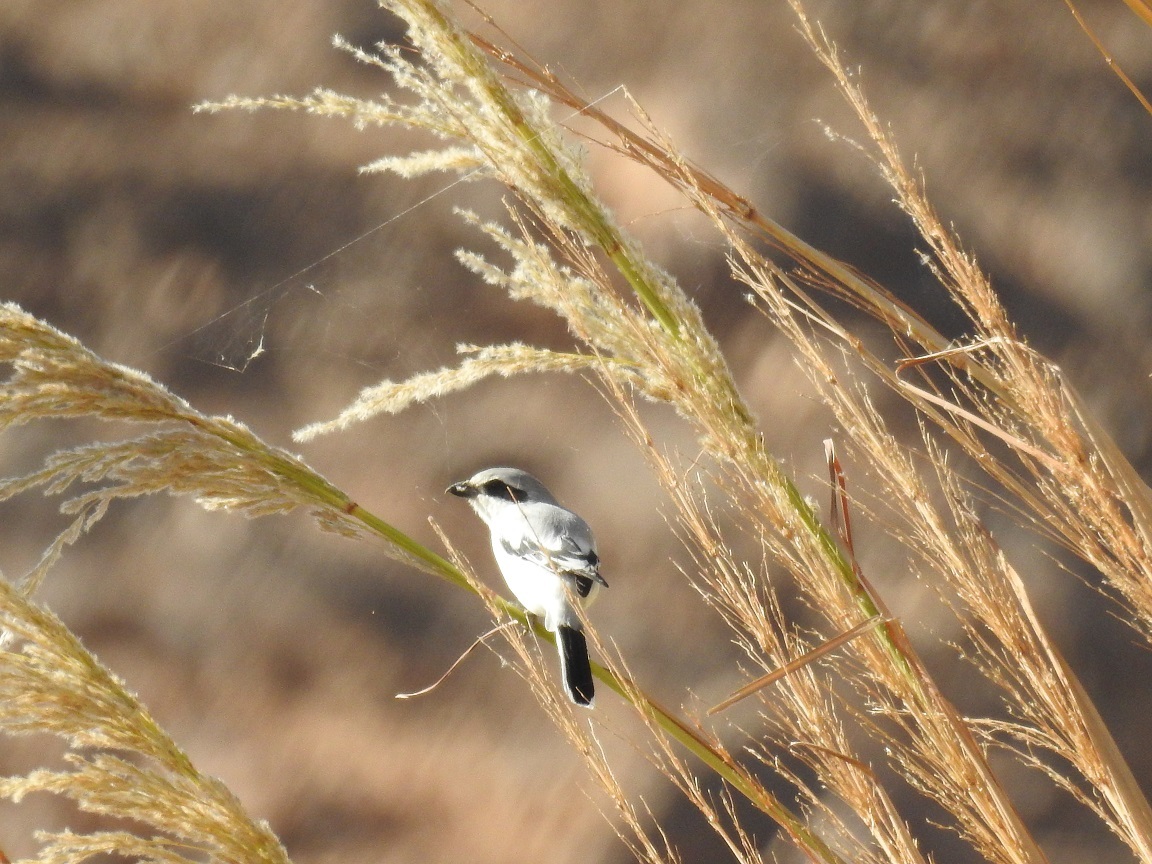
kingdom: Animalia
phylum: Chordata
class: Aves
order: Passeriformes
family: Laniidae
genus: Lanius
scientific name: Lanius excubitor
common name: Great grey shrike
